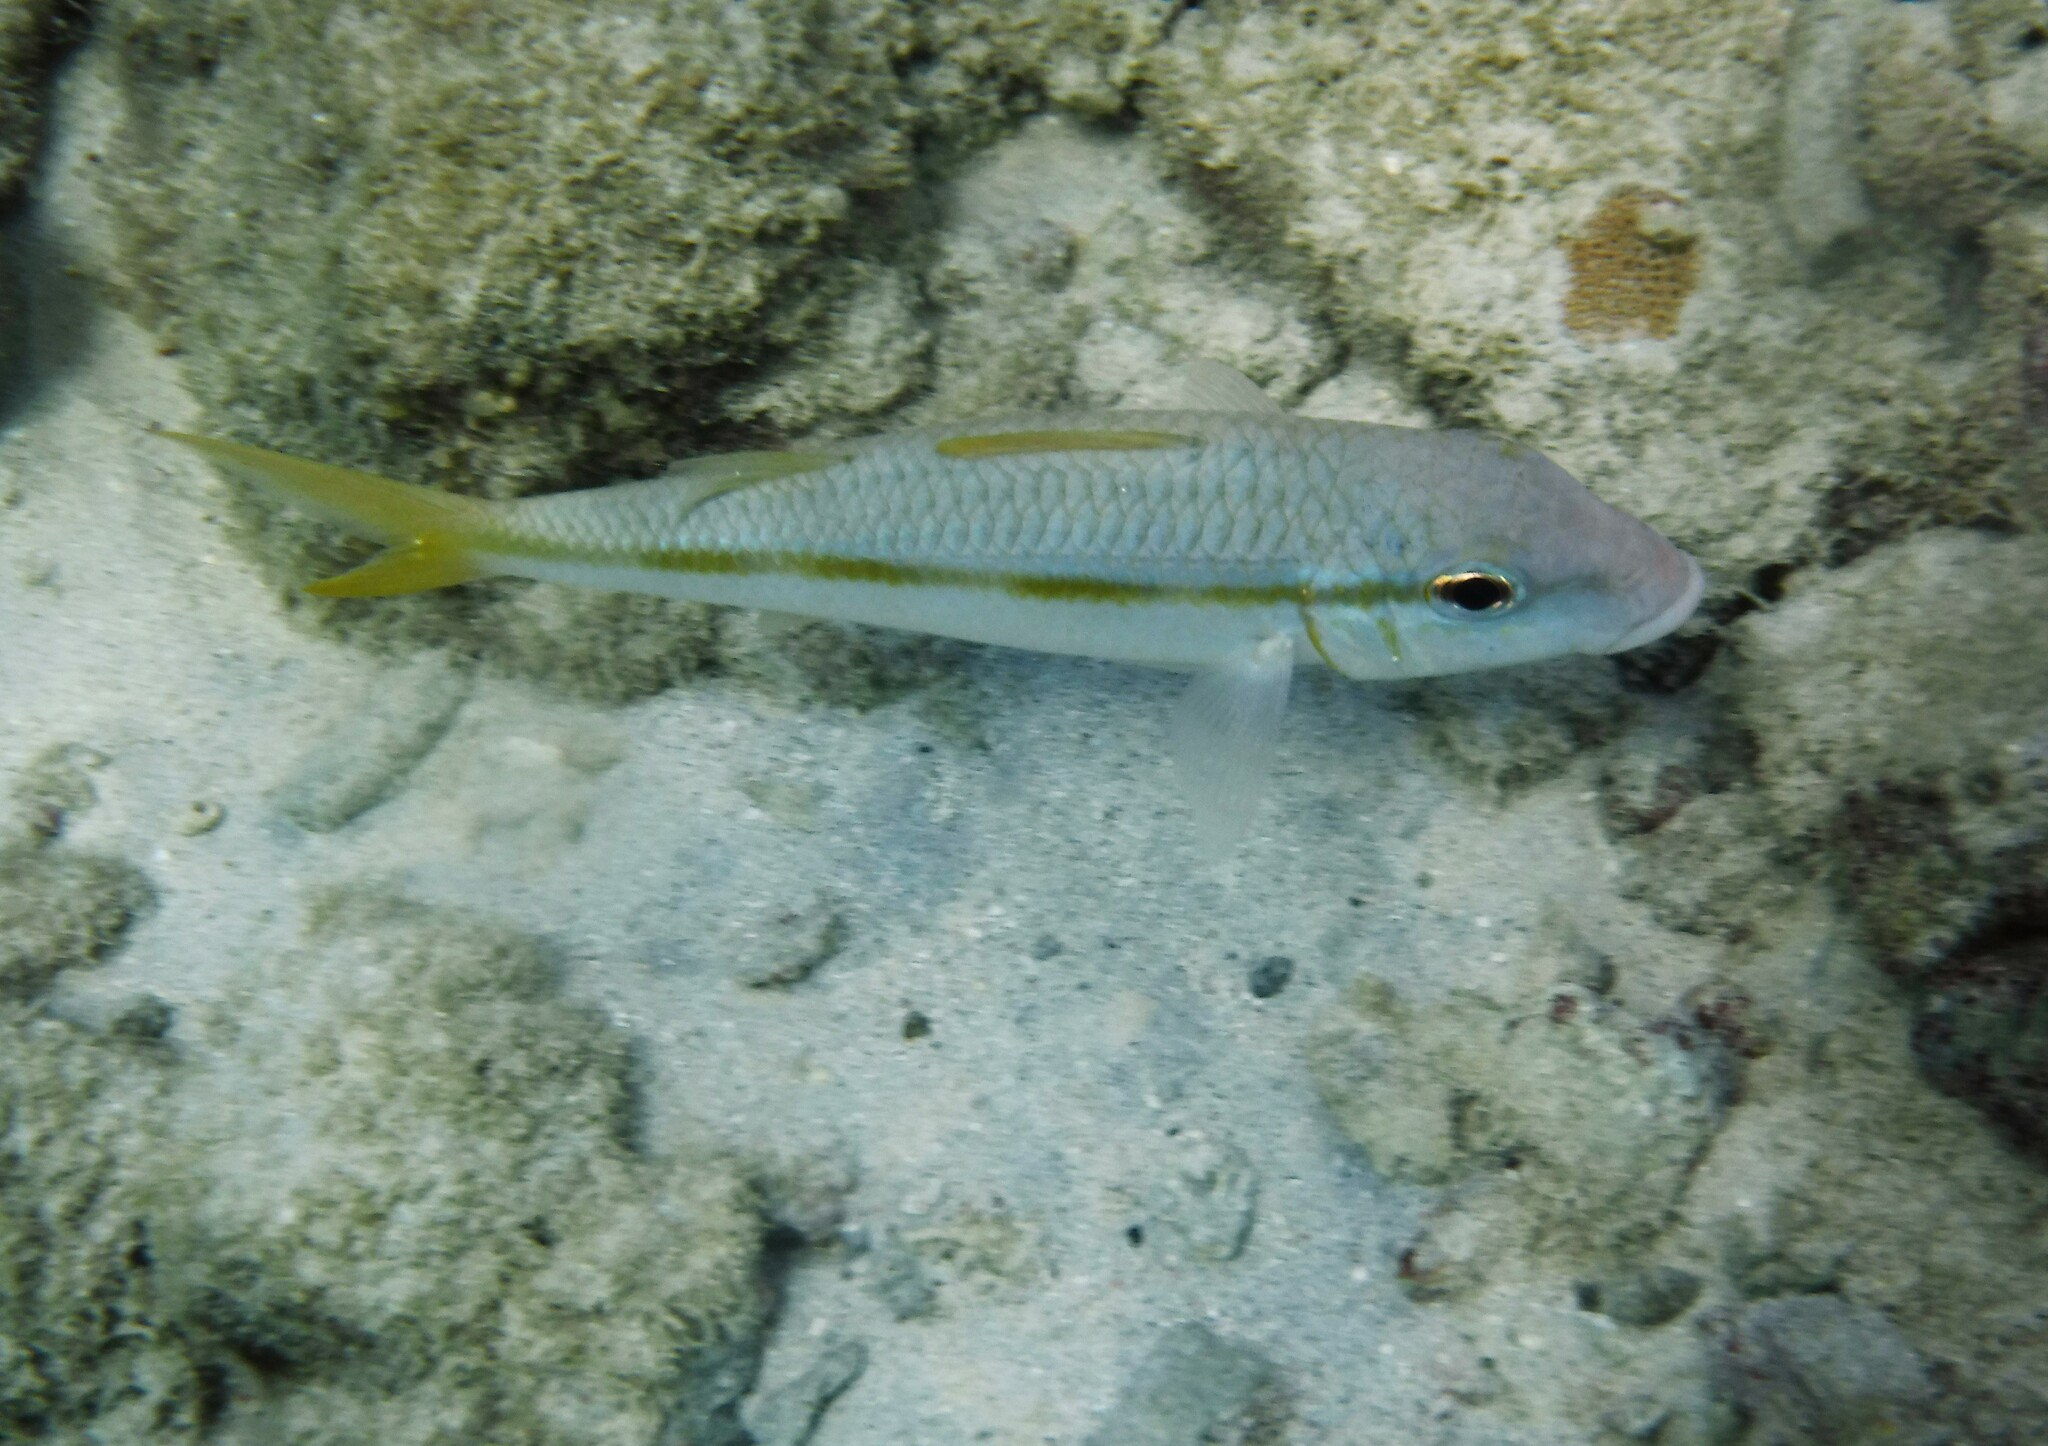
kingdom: Animalia
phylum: Chordata
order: Perciformes
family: Mullidae
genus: Mulloidichthys
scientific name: Mulloidichthys martinicus
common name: Yellow goatfish
